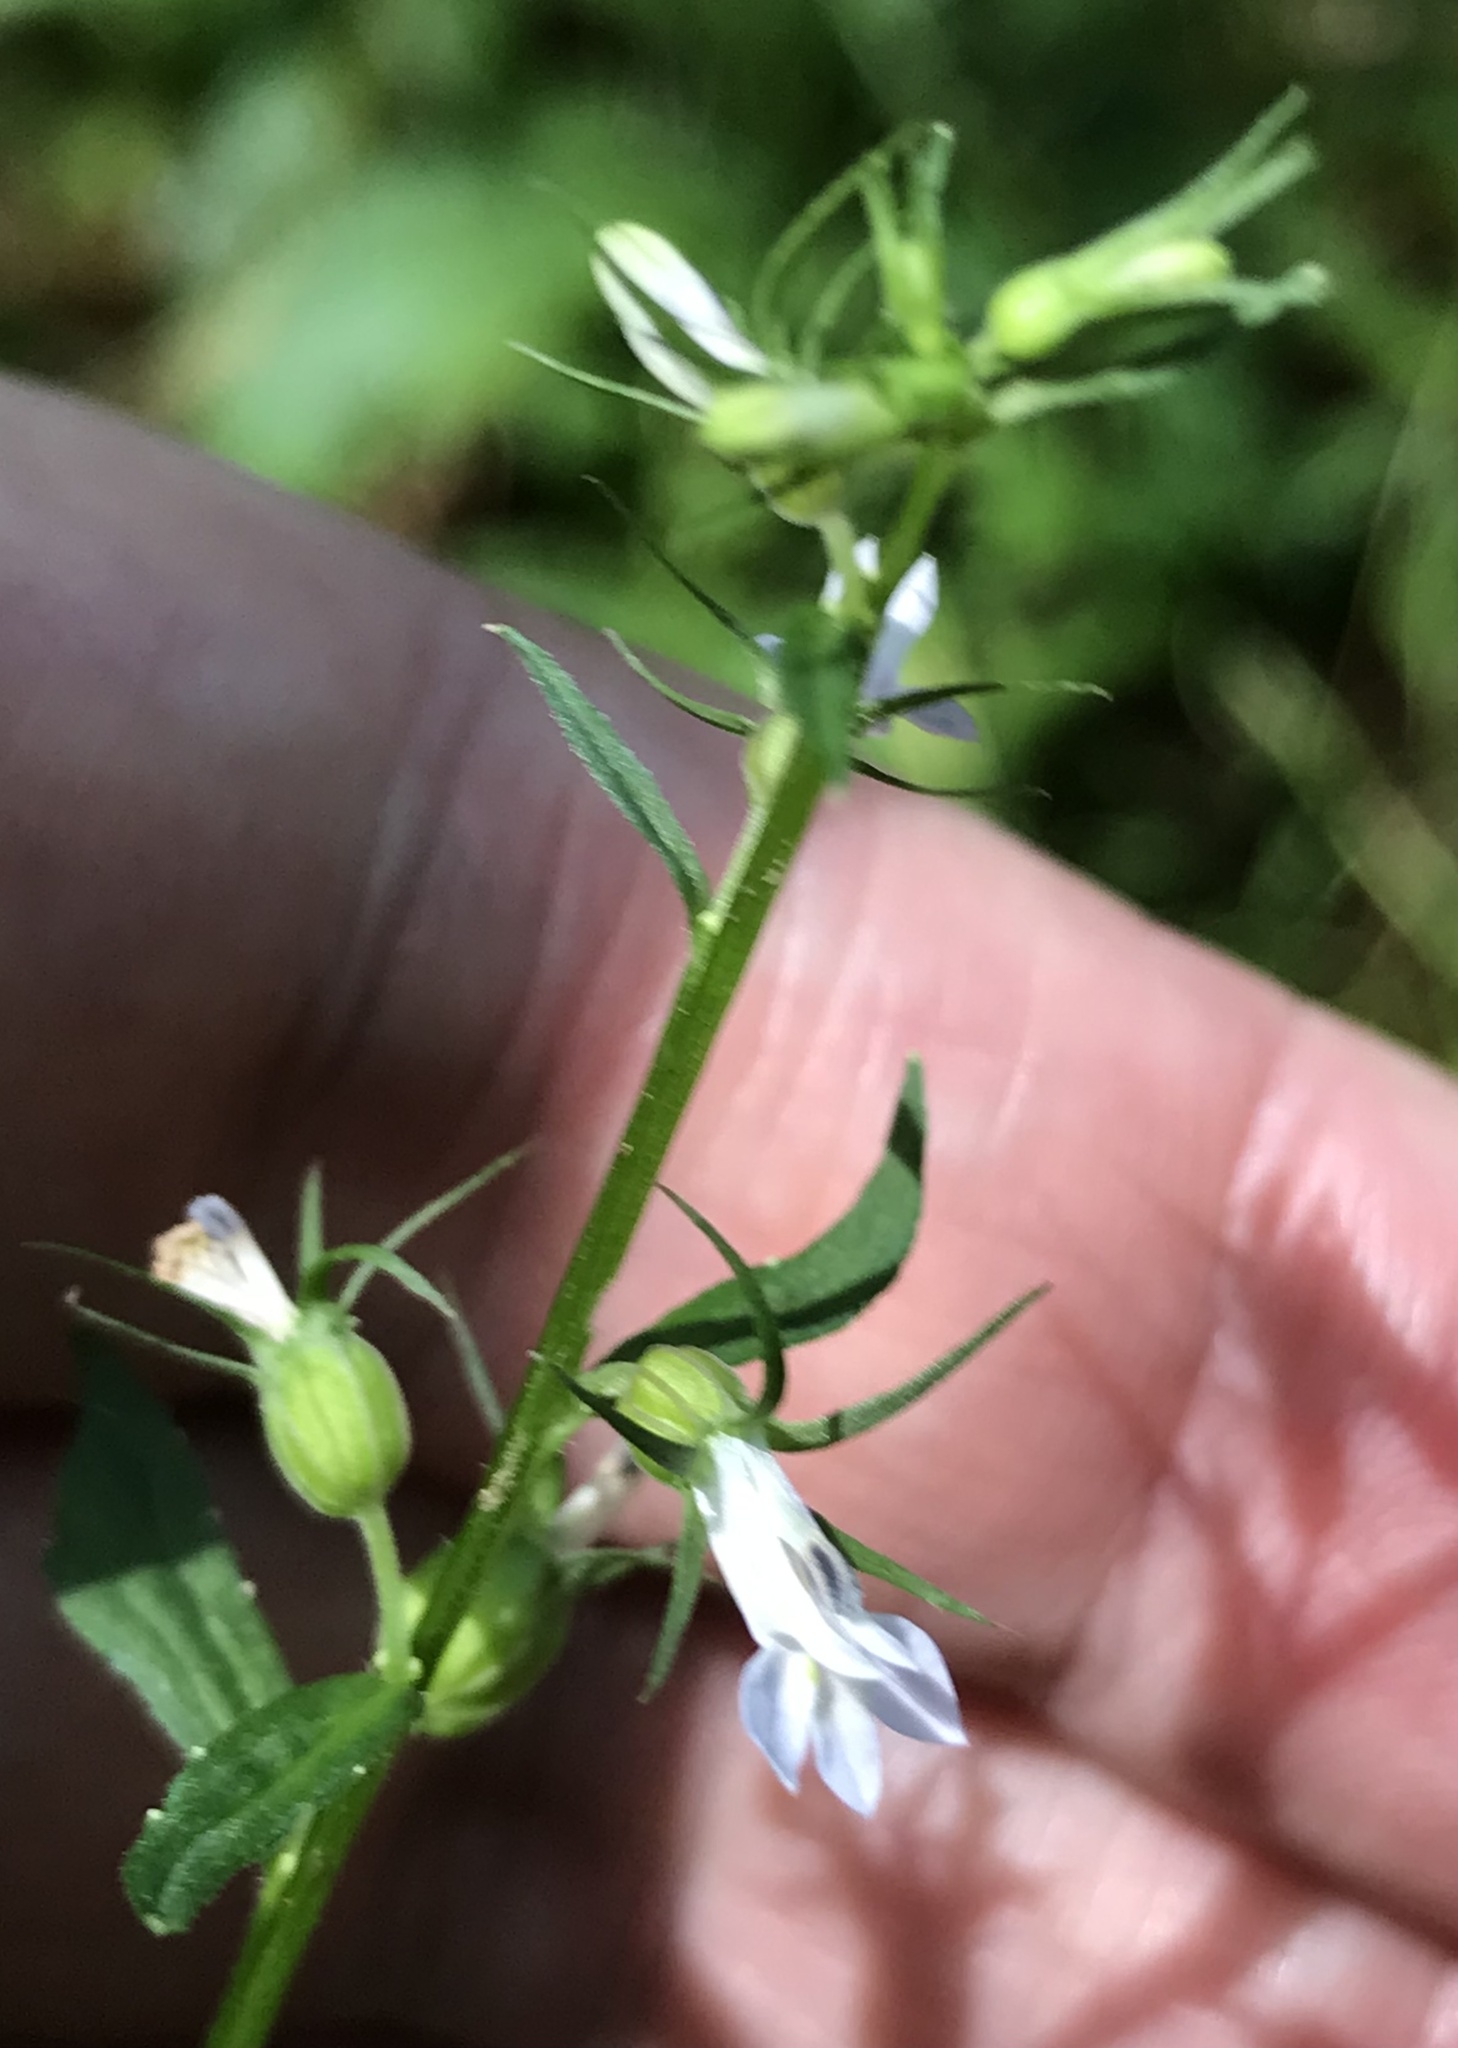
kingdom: Plantae
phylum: Tracheophyta
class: Magnoliopsida
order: Asterales
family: Campanulaceae
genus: Lobelia
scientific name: Lobelia inflata
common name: Indian tobacco
